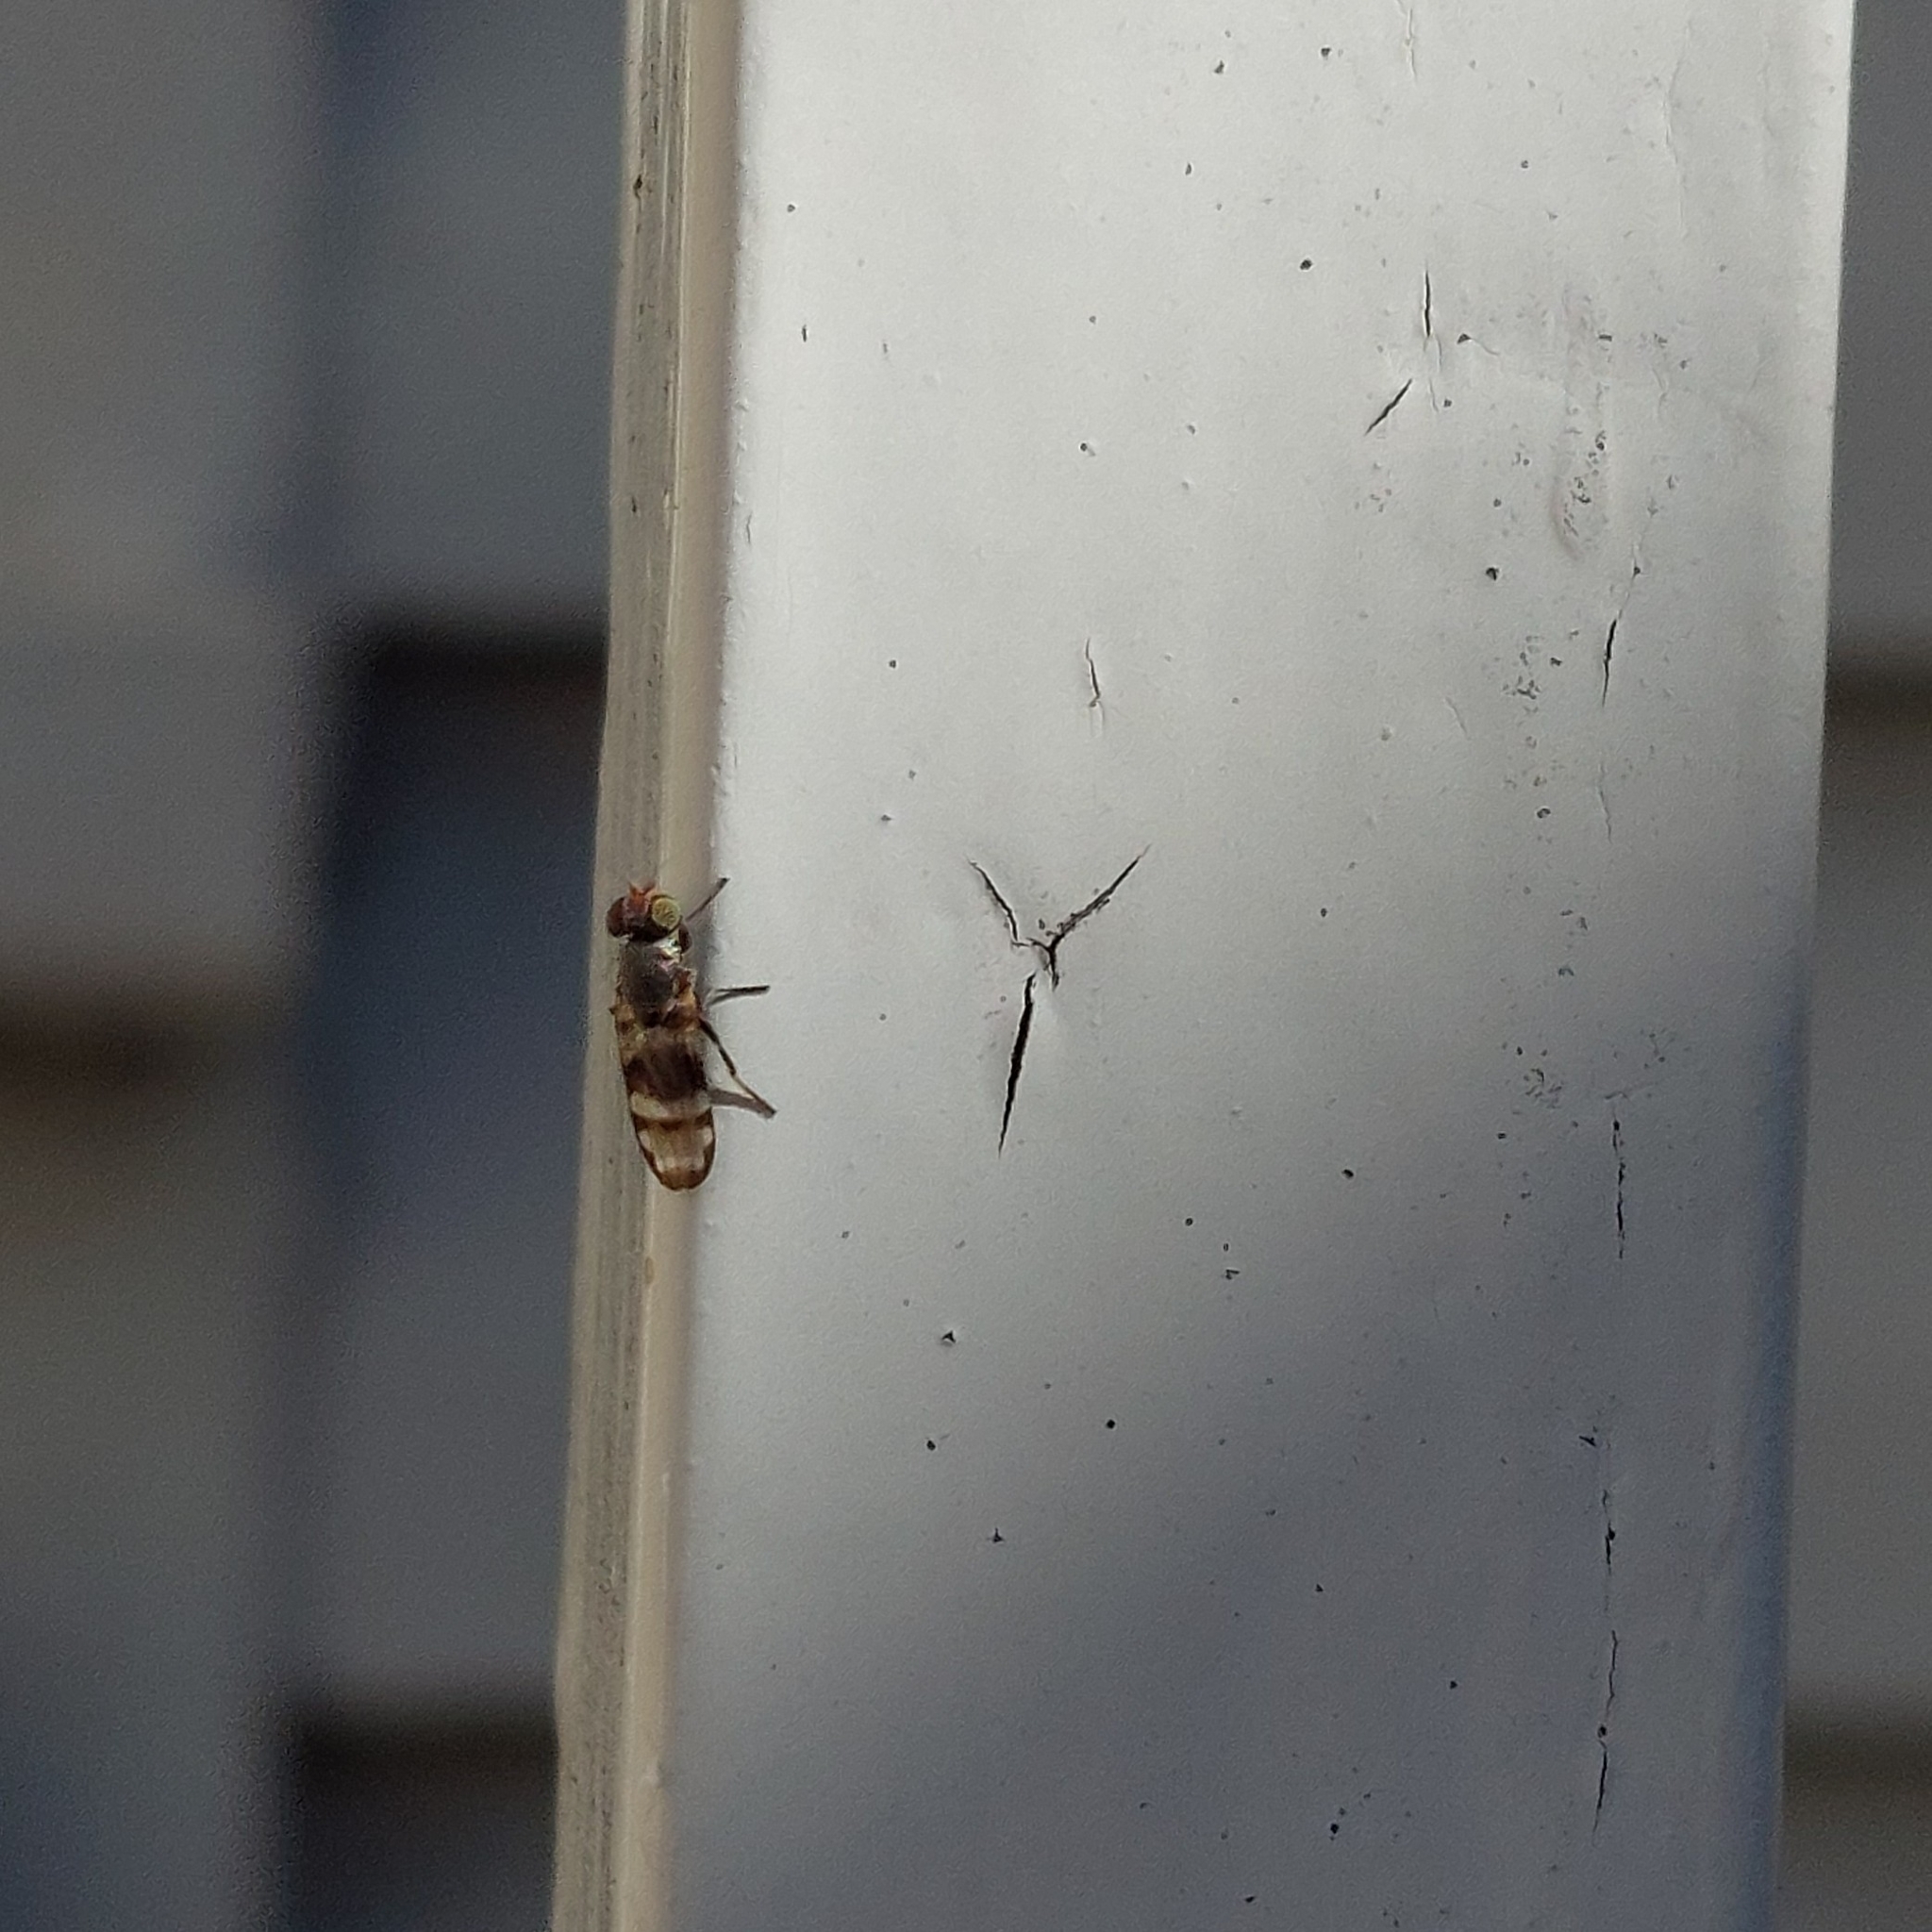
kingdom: Animalia
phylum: Arthropoda
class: Insecta
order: Diptera
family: Ulidiidae
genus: Euxesta
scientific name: Euxesta eluta
